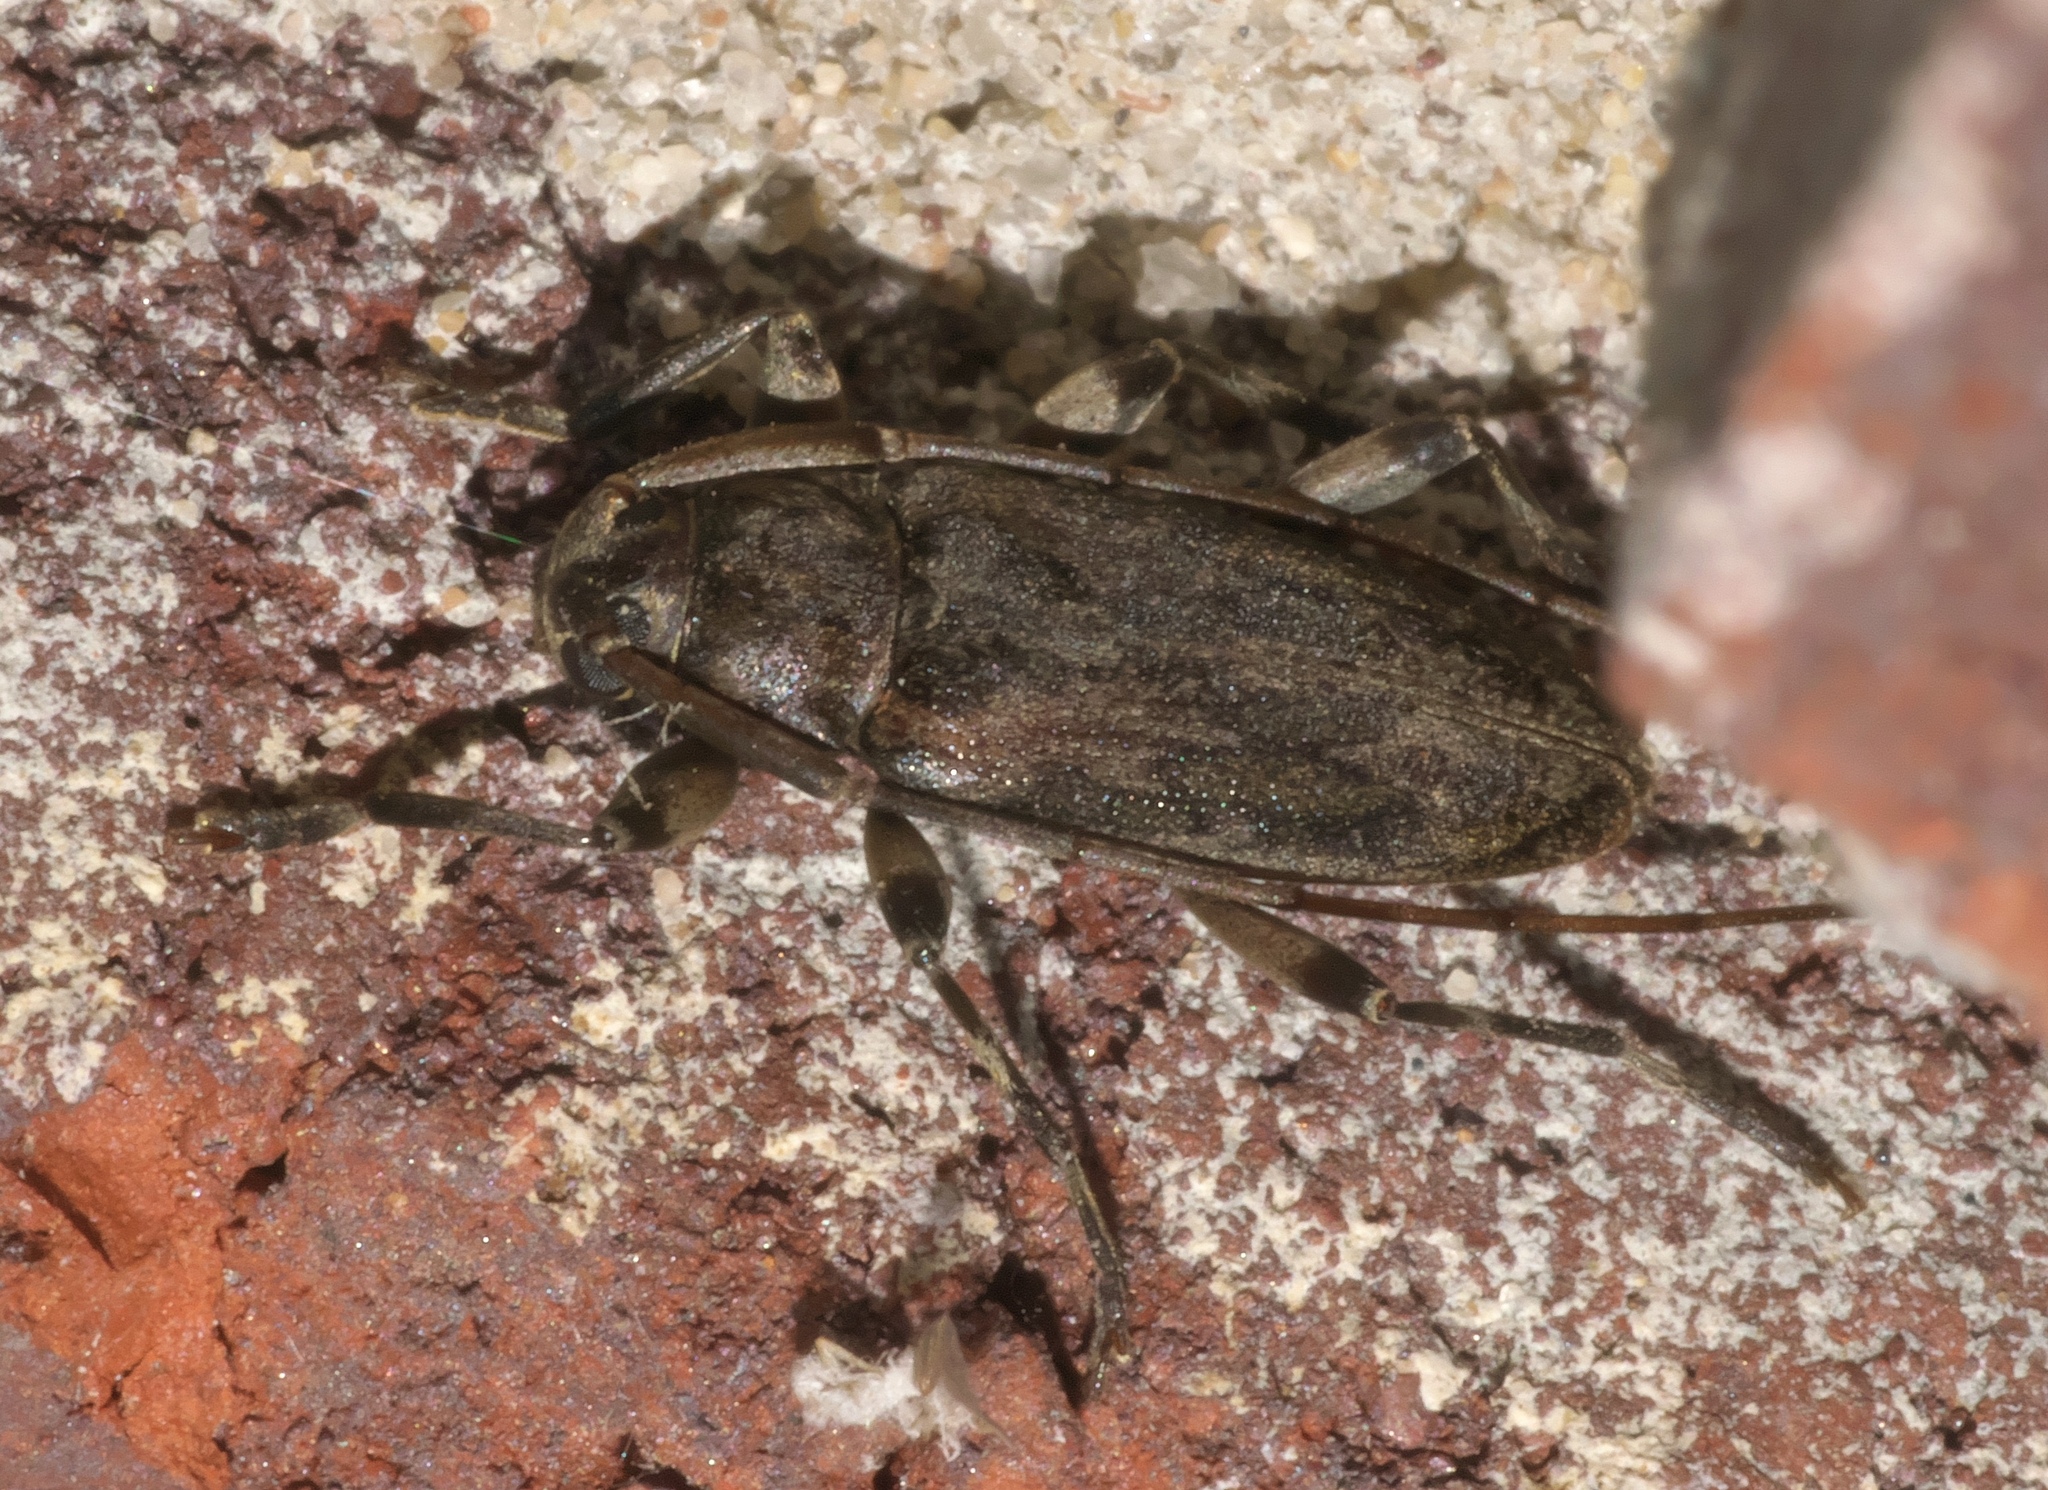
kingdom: Animalia
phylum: Arthropoda
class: Insecta
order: Coleoptera
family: Cerambycidae
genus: Lepturges
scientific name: Lepturges confluens
